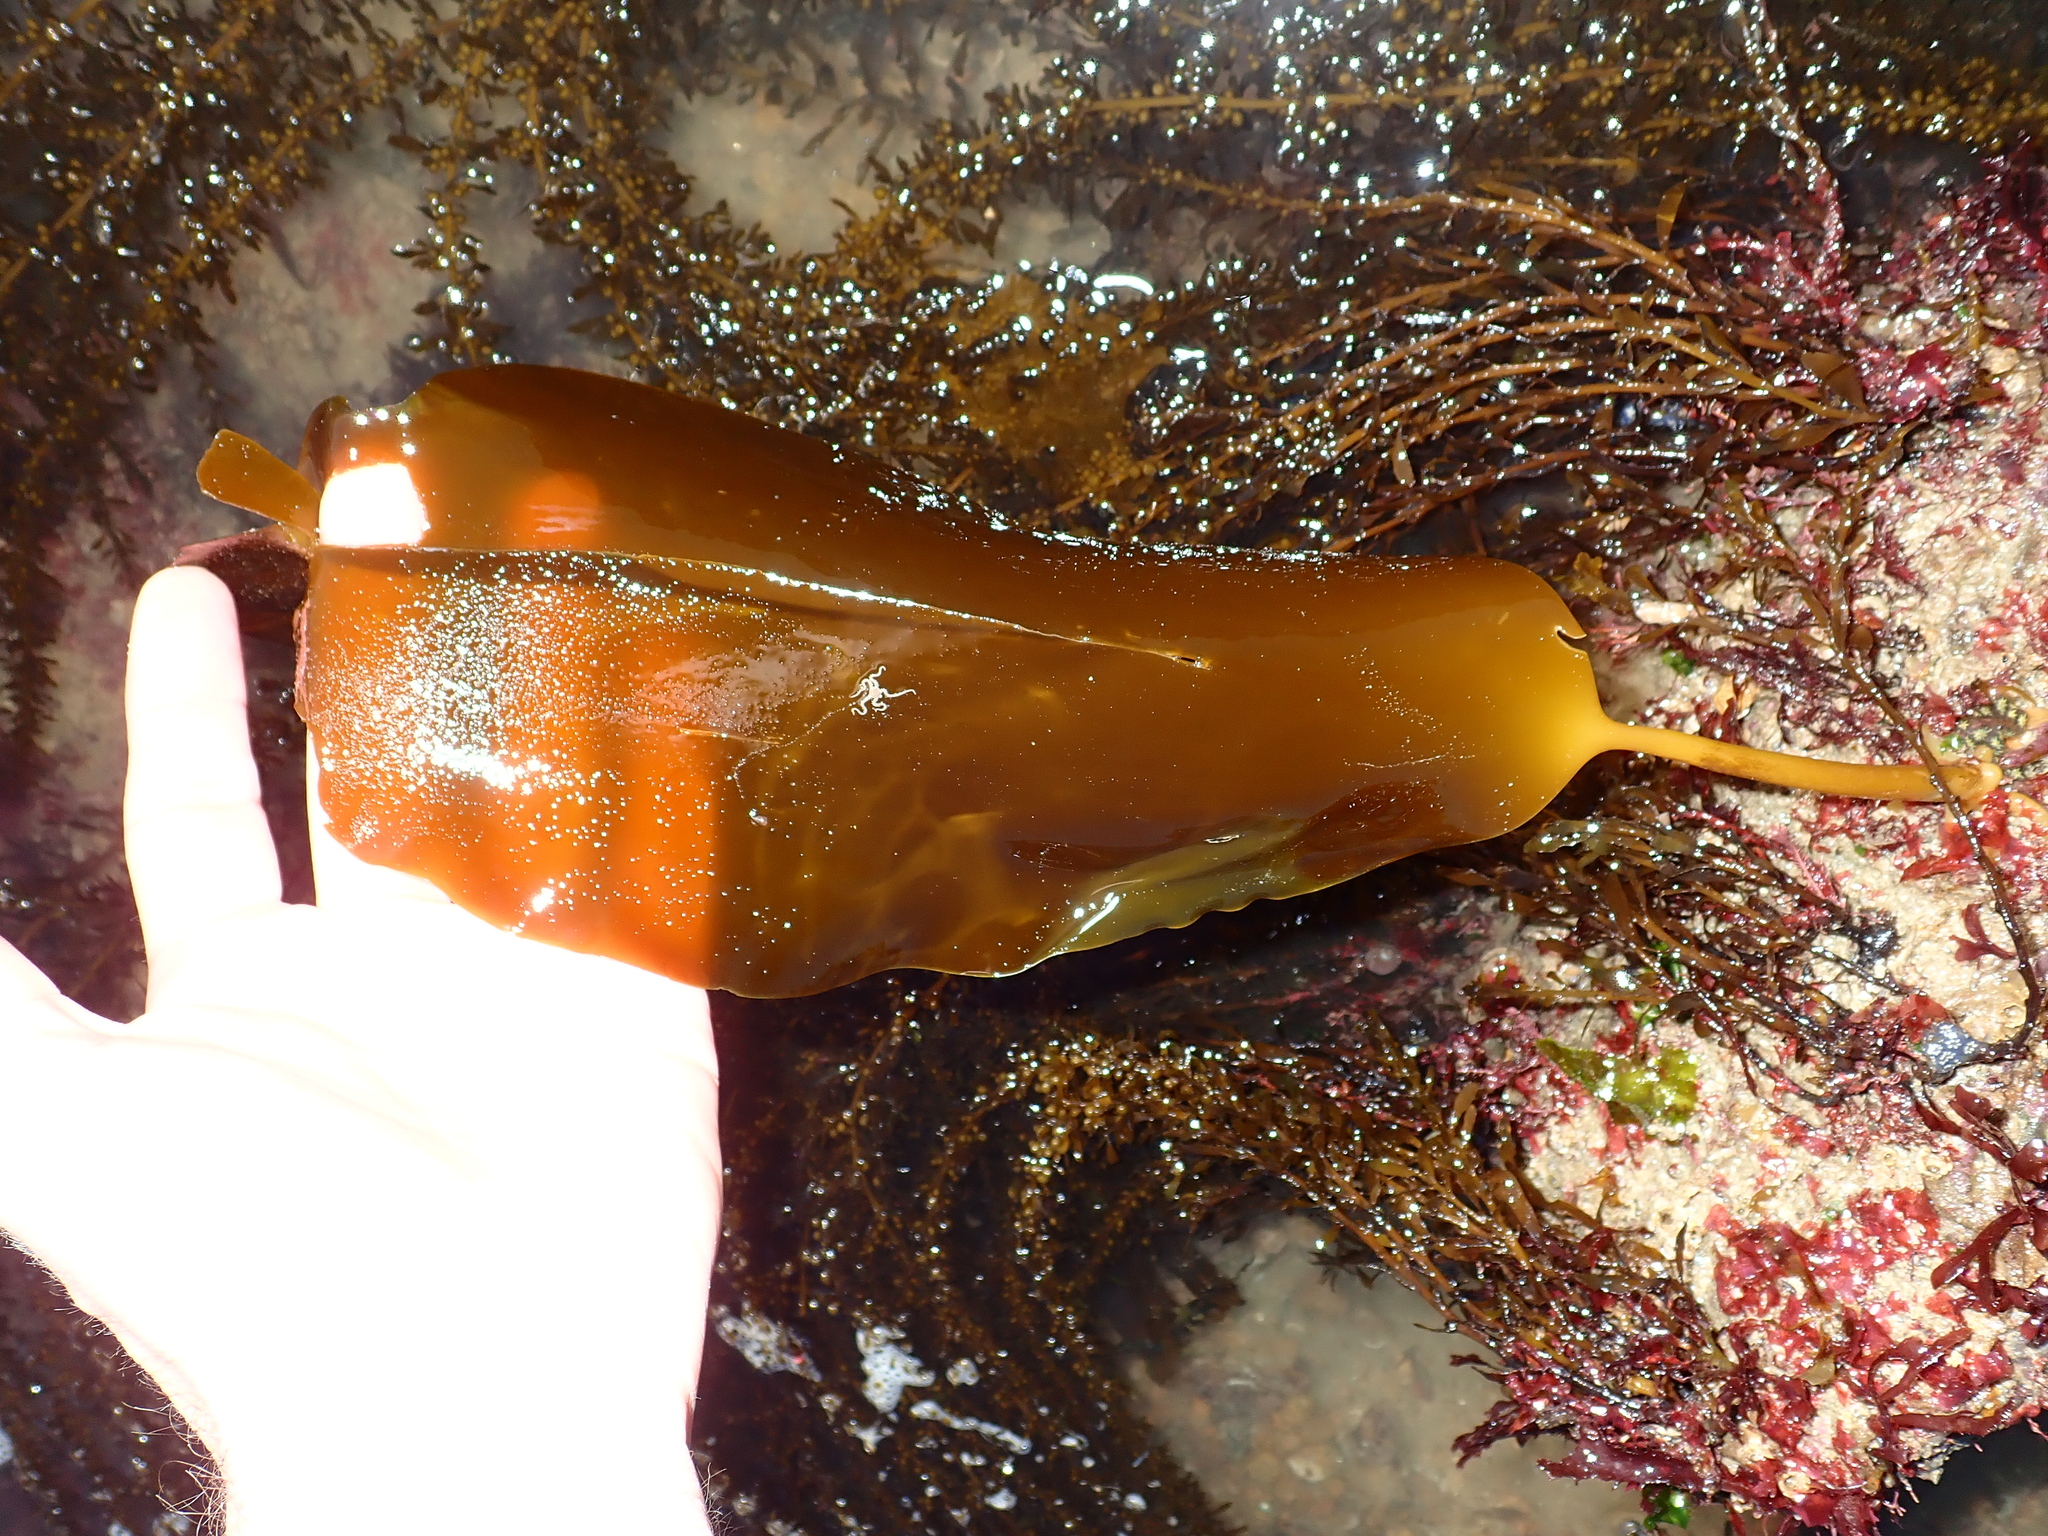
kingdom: Chromista
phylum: Ochrophyta
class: Phaeophyceae
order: Laminariales
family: Laminariaceae
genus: Laminaria
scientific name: Laminaria digitata
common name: Oarweed
